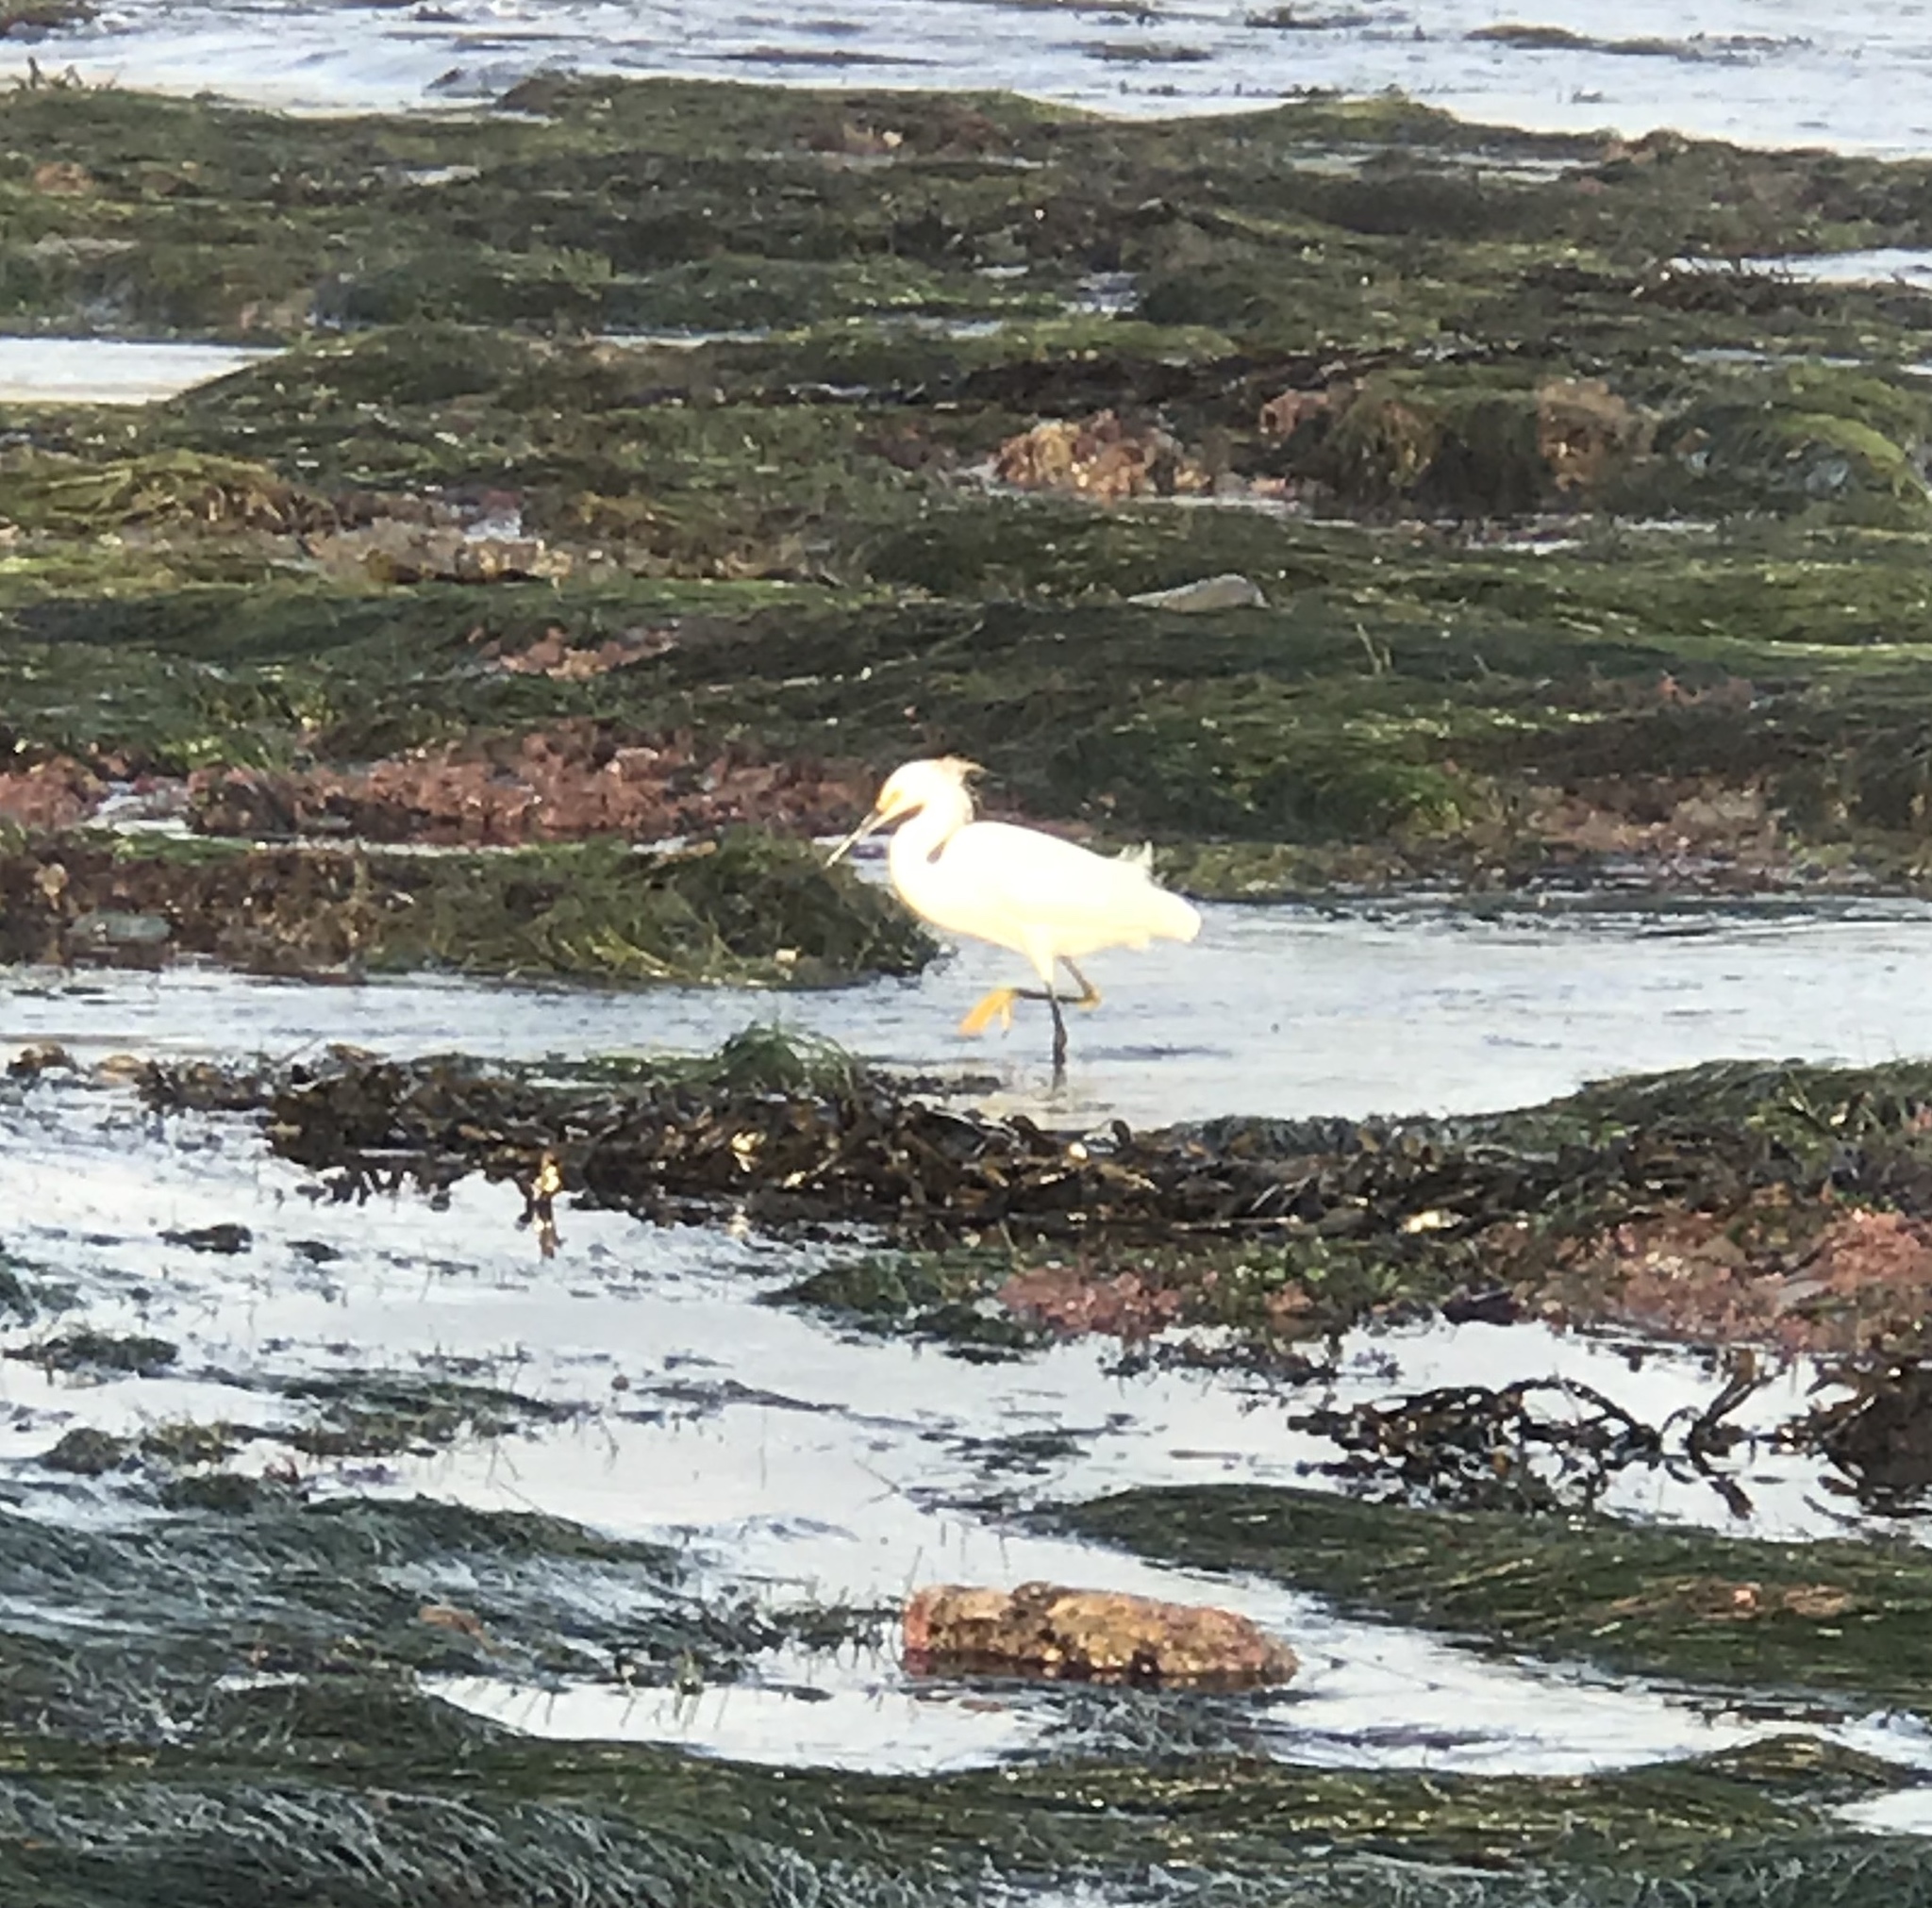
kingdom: Animalia
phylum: Chordata
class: Aves
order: Pelecaniformes
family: Ardeidae
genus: Egretta
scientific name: Egretta thula
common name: Snowy egret
